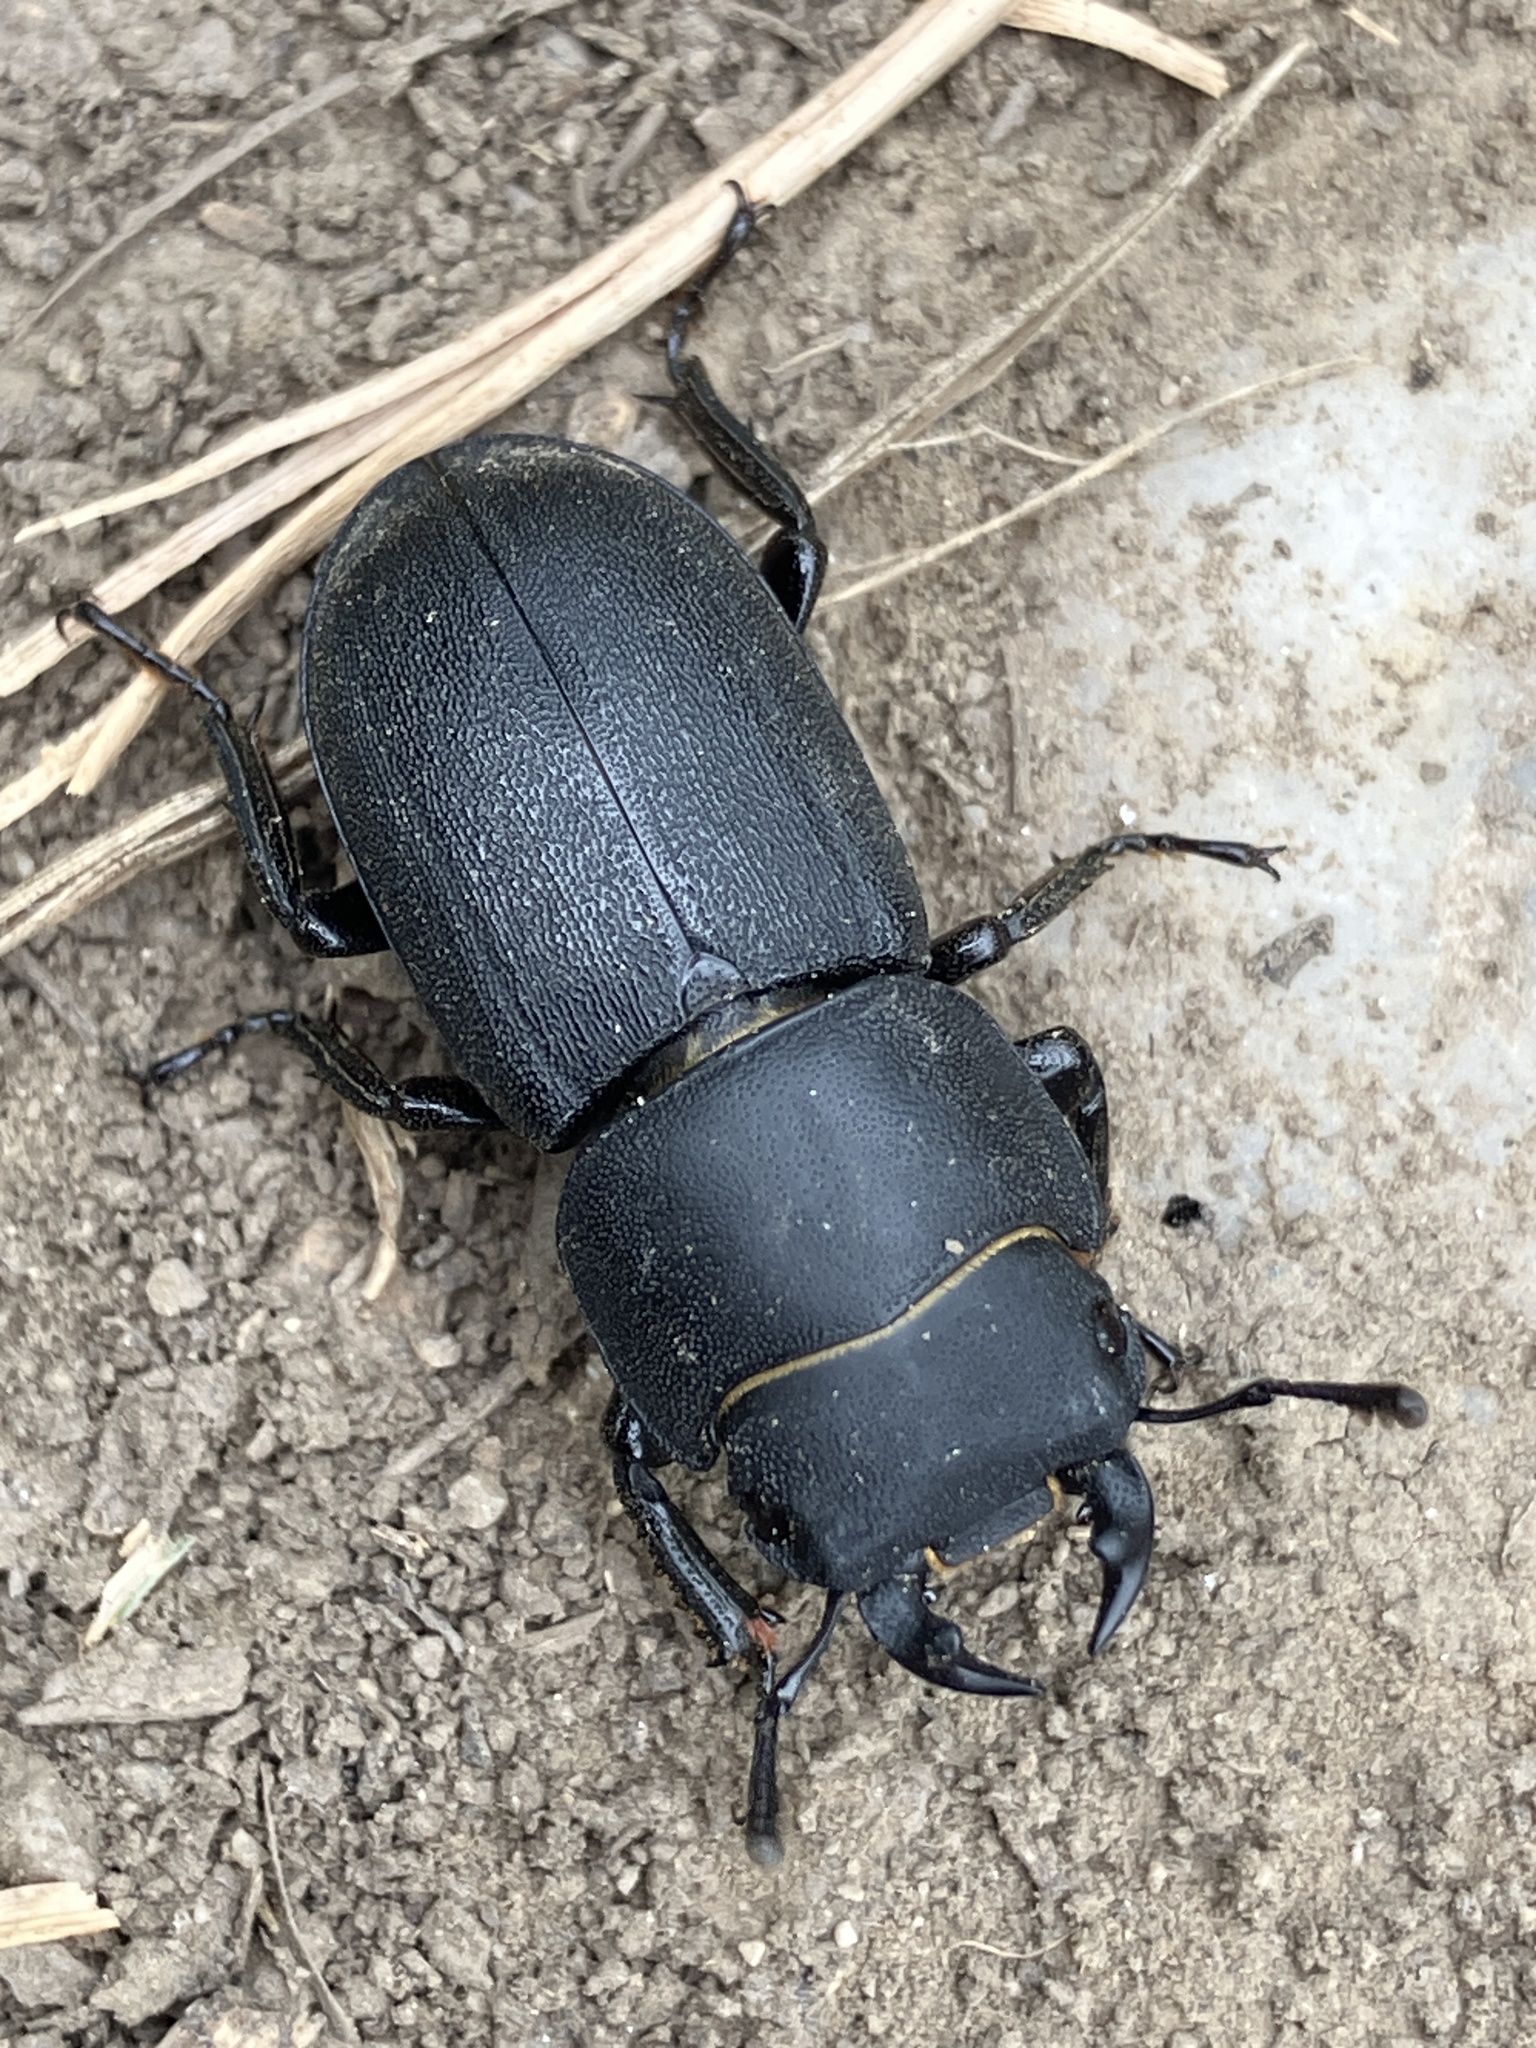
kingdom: Animalia
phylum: Arthropoda
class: Insecta
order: Coleoptera
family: Lucanidae
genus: Dorcus
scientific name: Dorcus parallelipipedus
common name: Lesser stag beetle
